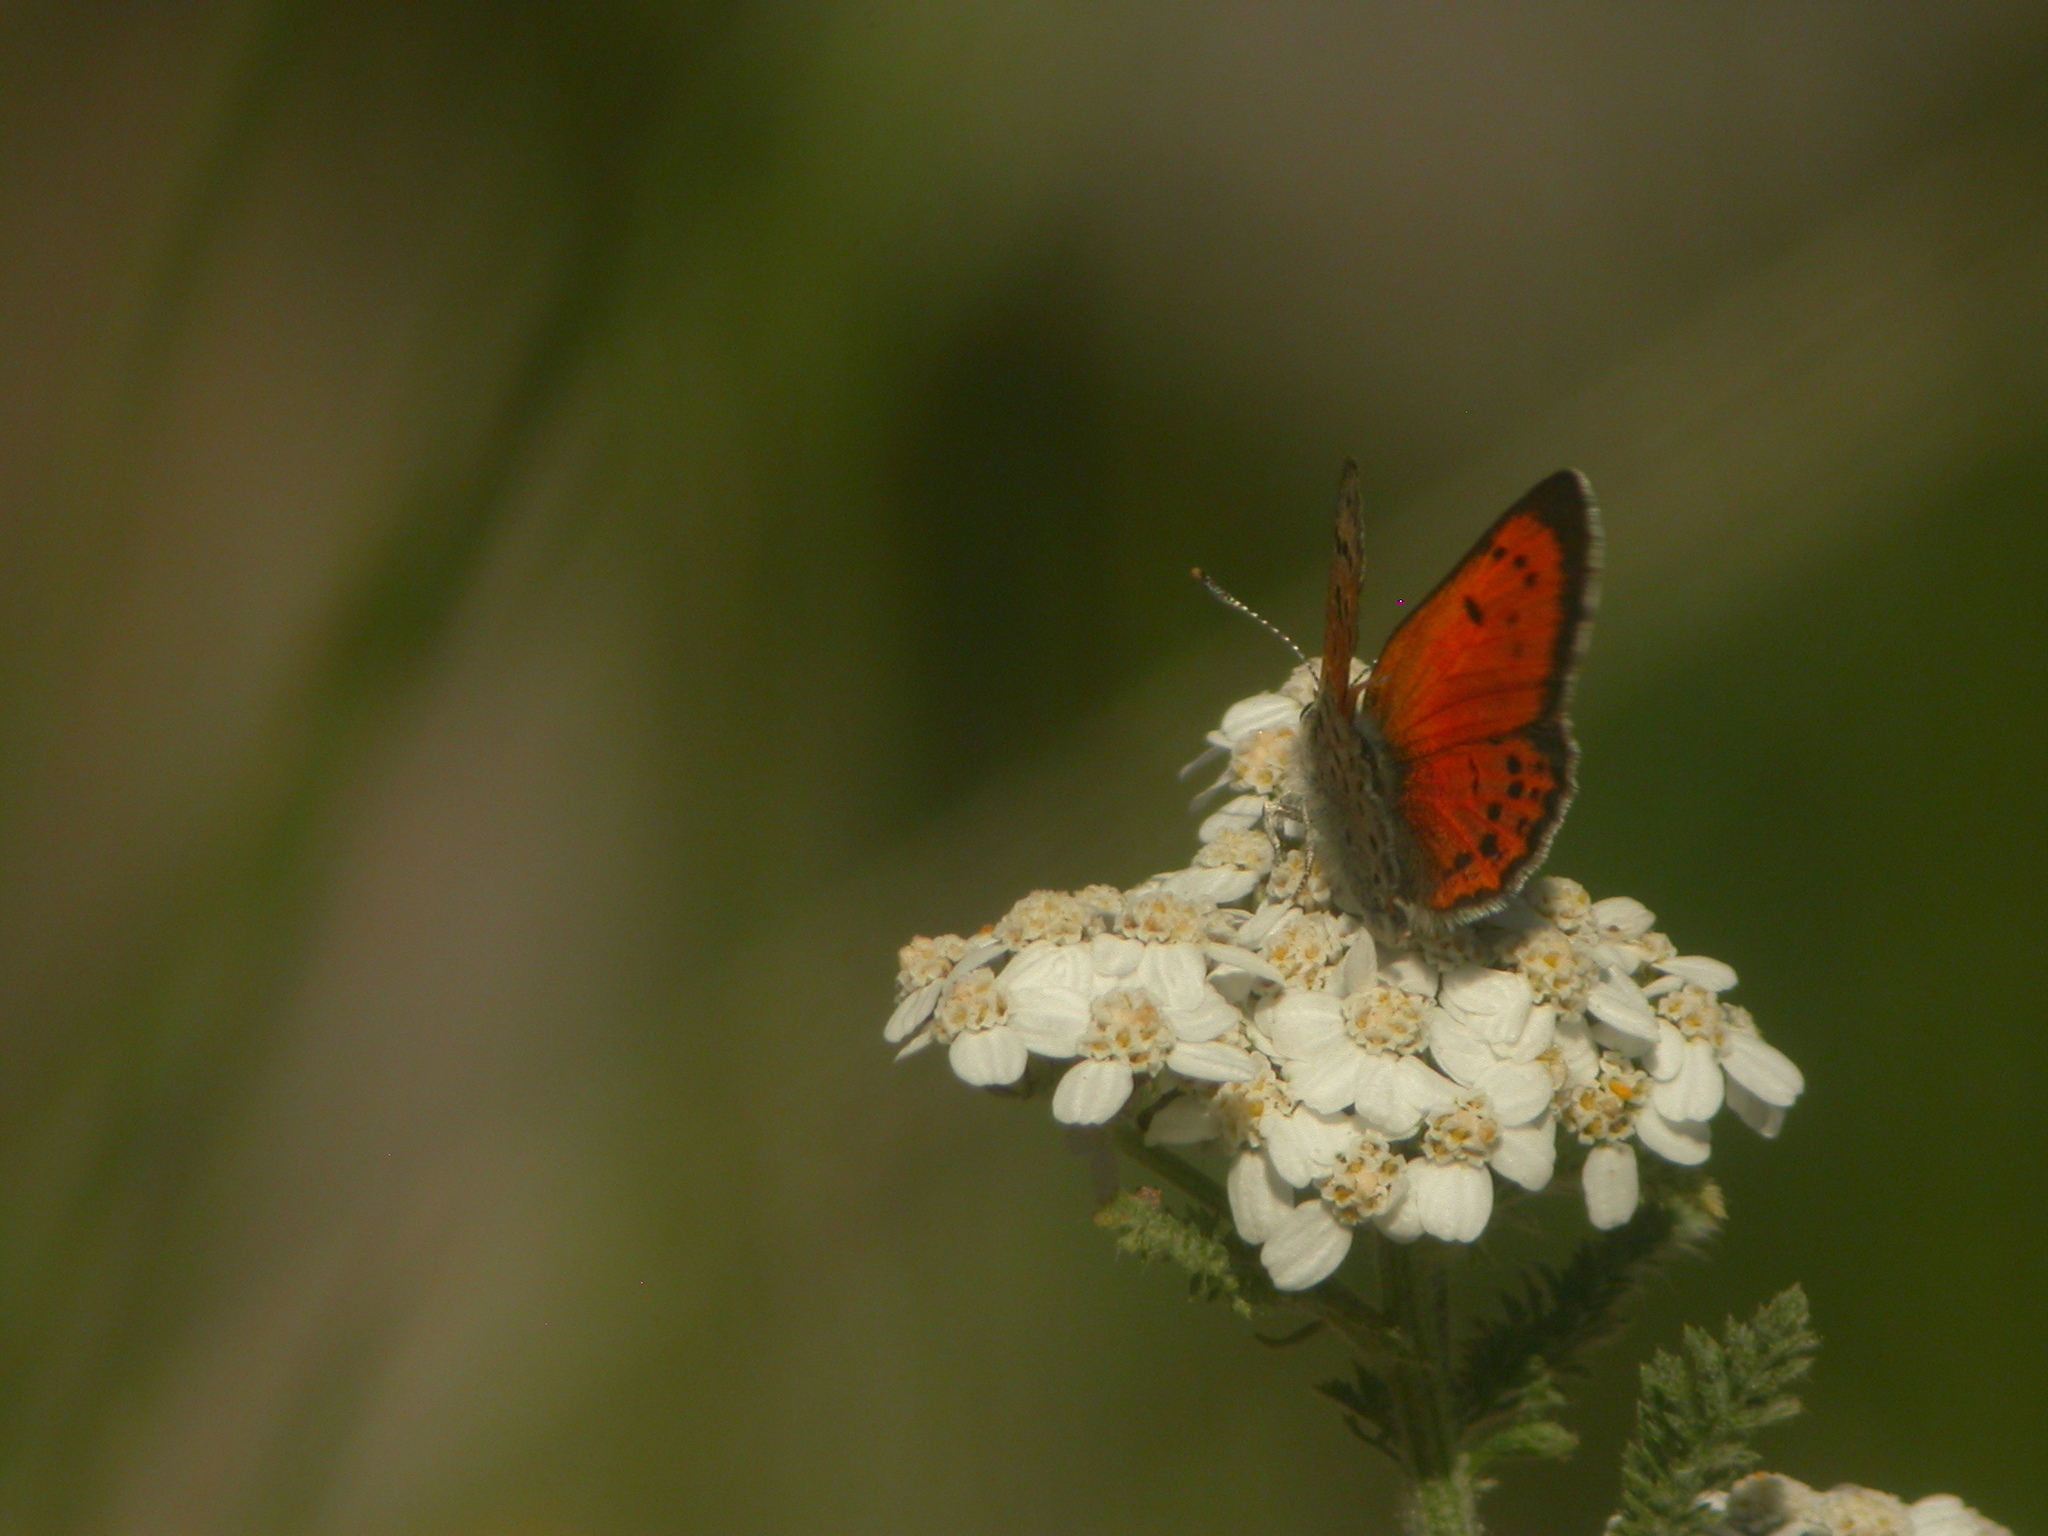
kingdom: Animalia
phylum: Arthropoda
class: Insecta
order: Lepidoptera
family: Lycaenidae
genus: Lycaena
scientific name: Lycaena cupreus
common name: Lustrous copper
